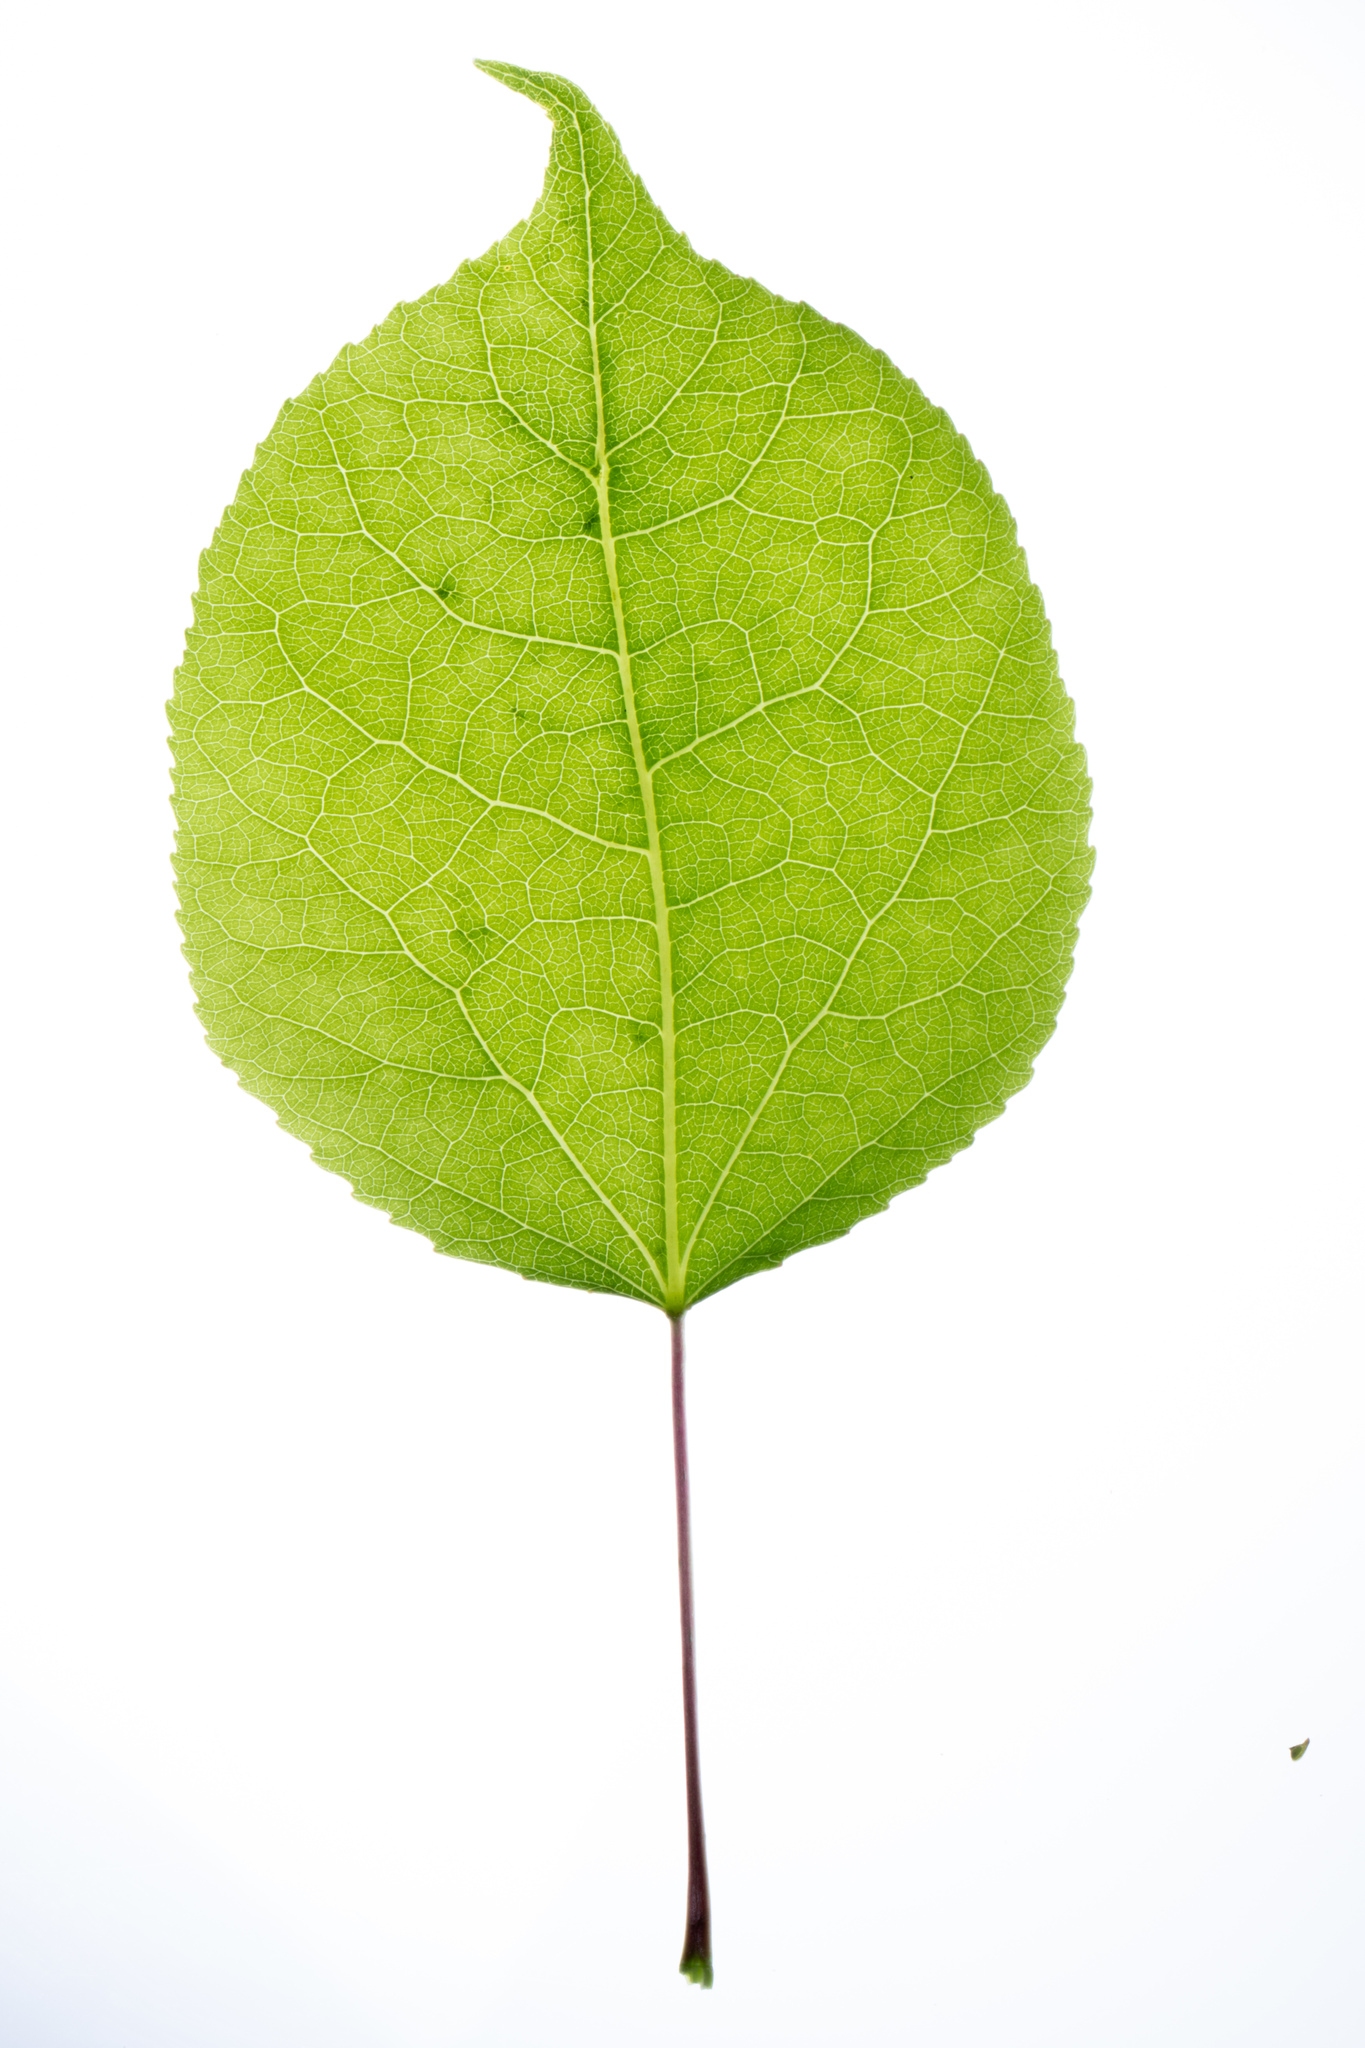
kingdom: Plantae
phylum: Tracheophyta
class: Magnoliopsida
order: Malpighiales
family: Salicaceae
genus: Populus
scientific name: Populus tremuloides
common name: Quaking aspen
